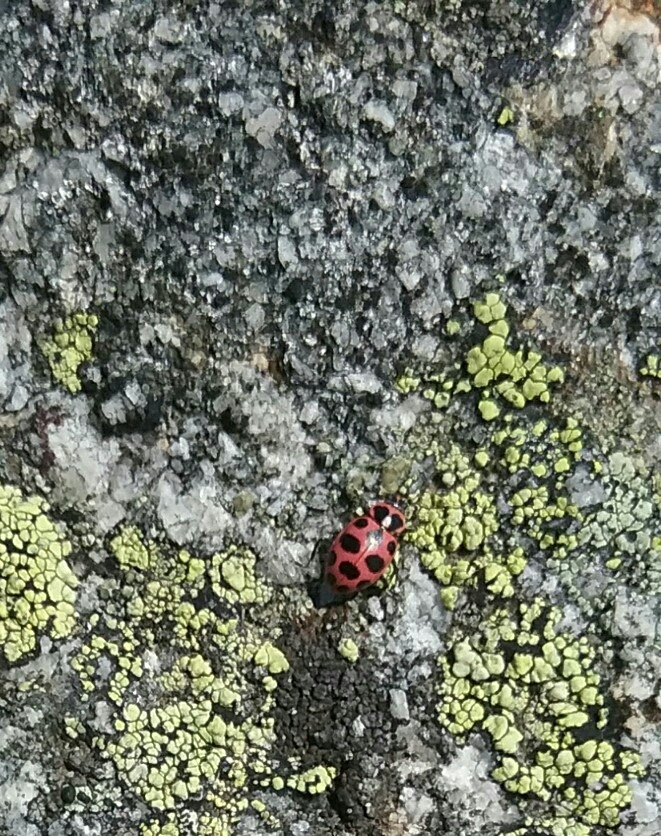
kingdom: Animalia
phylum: Arthropoda
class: Insecta
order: Coleoptera
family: Coccinellidae
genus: Coleomegilla
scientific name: Coleomegilla maculata
